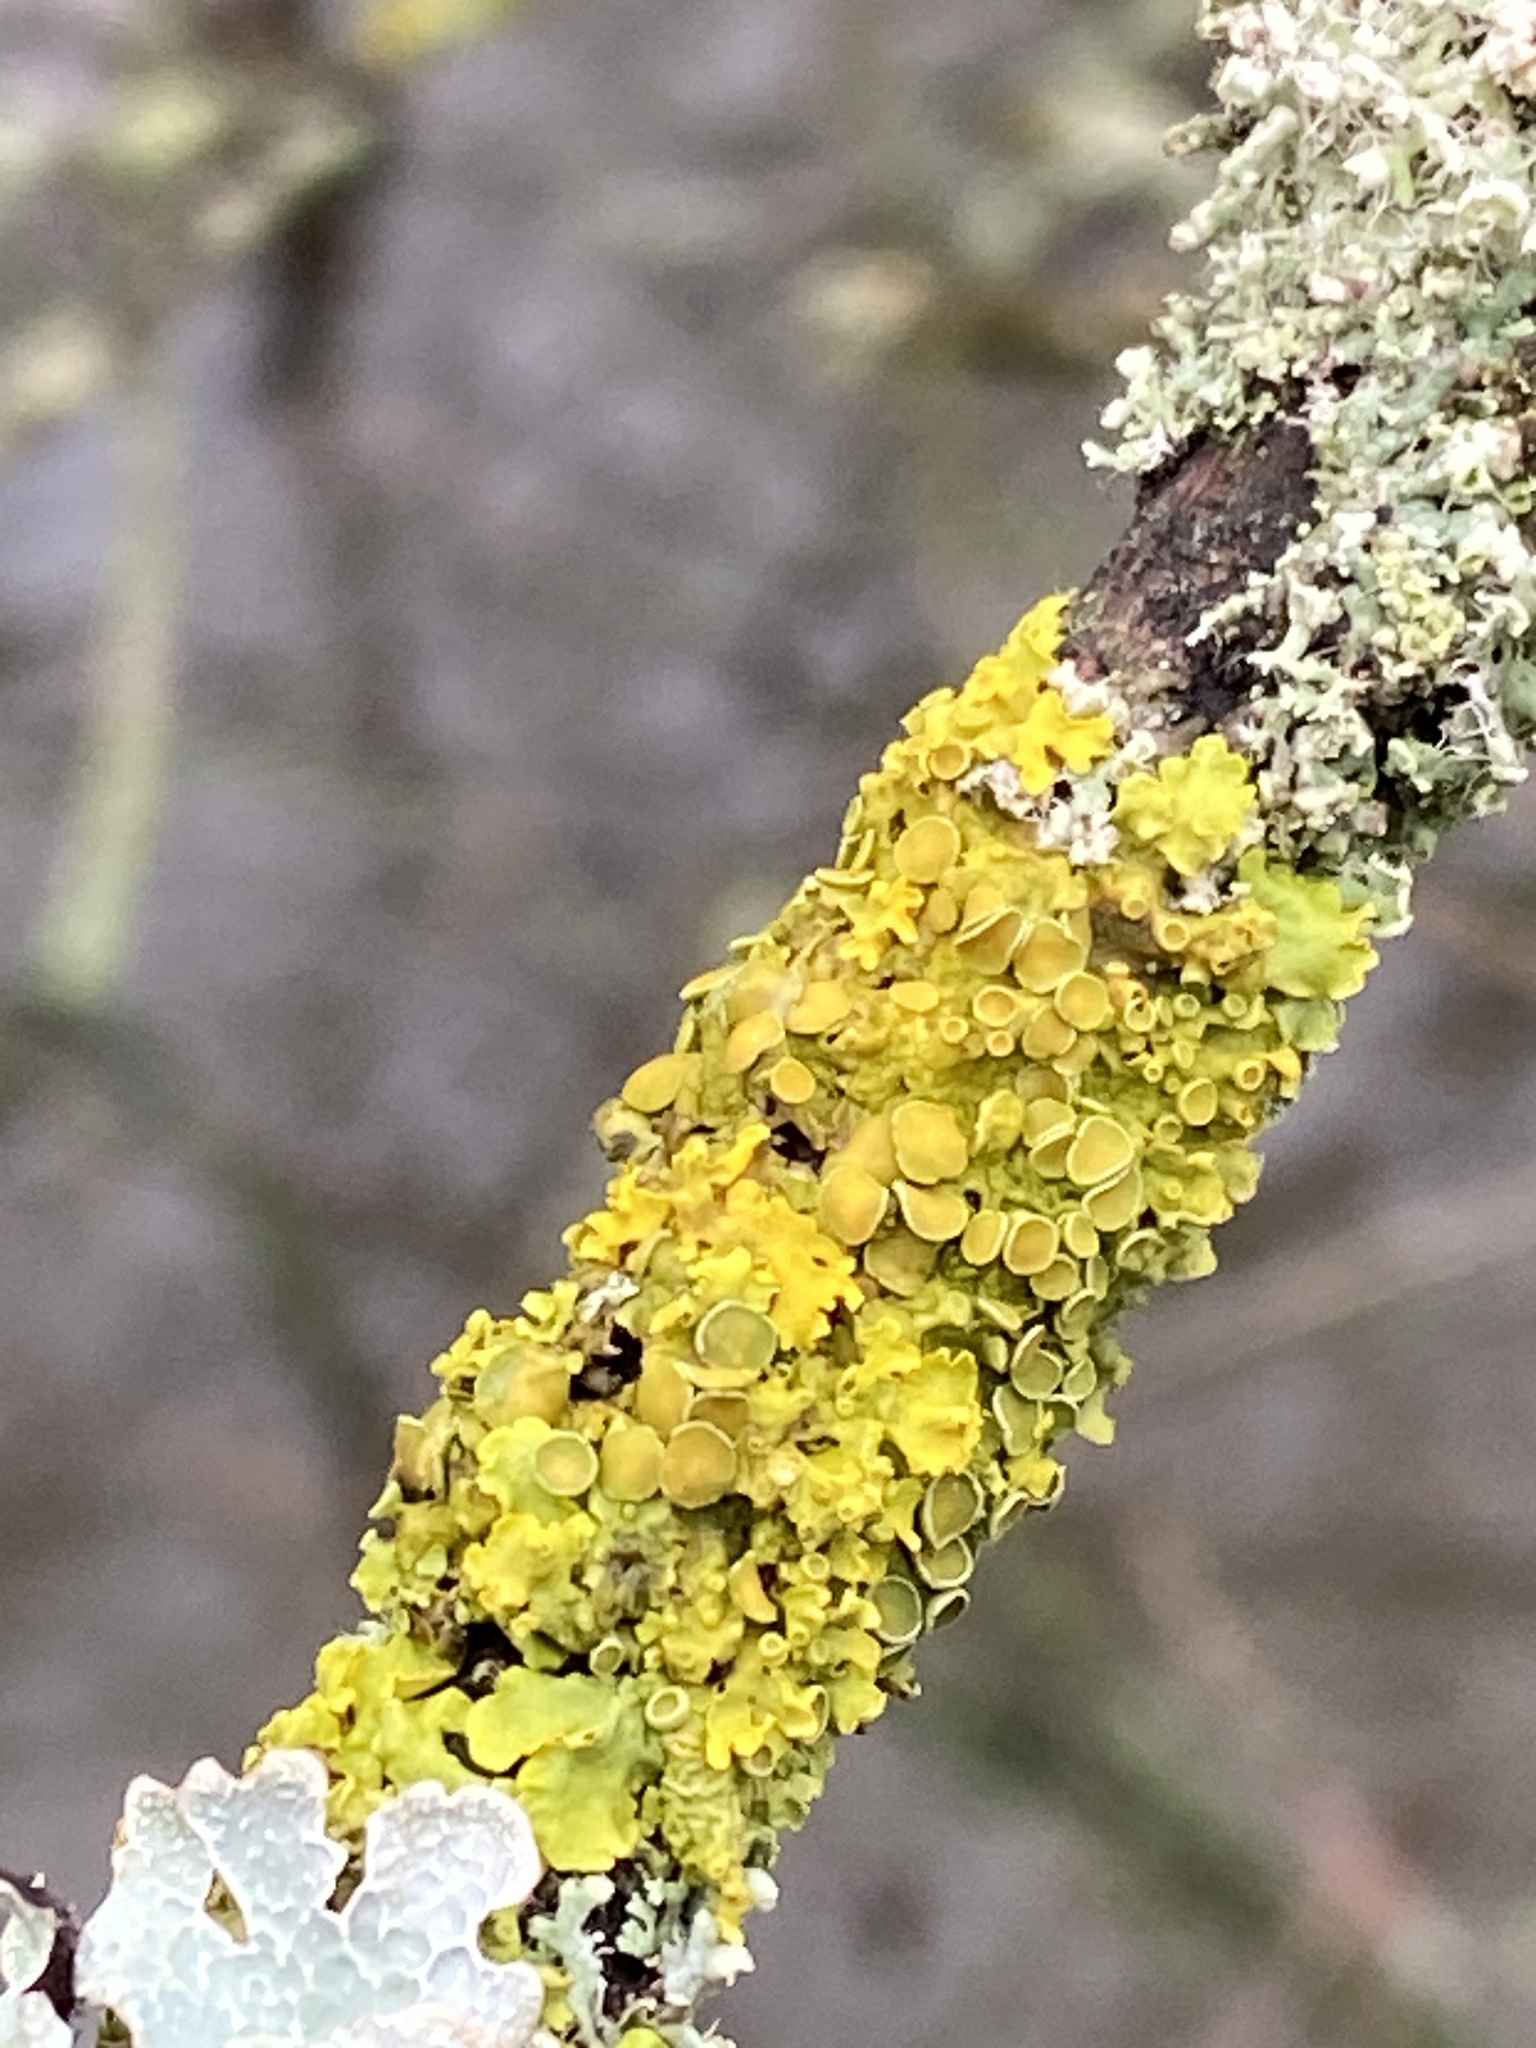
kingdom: Fungi
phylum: Ascomycota
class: Lecanoromycetes
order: Teloschistales
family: Teloschistaceae
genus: Xanthoria
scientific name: Xanthoria parietina
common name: Common orange lichen
